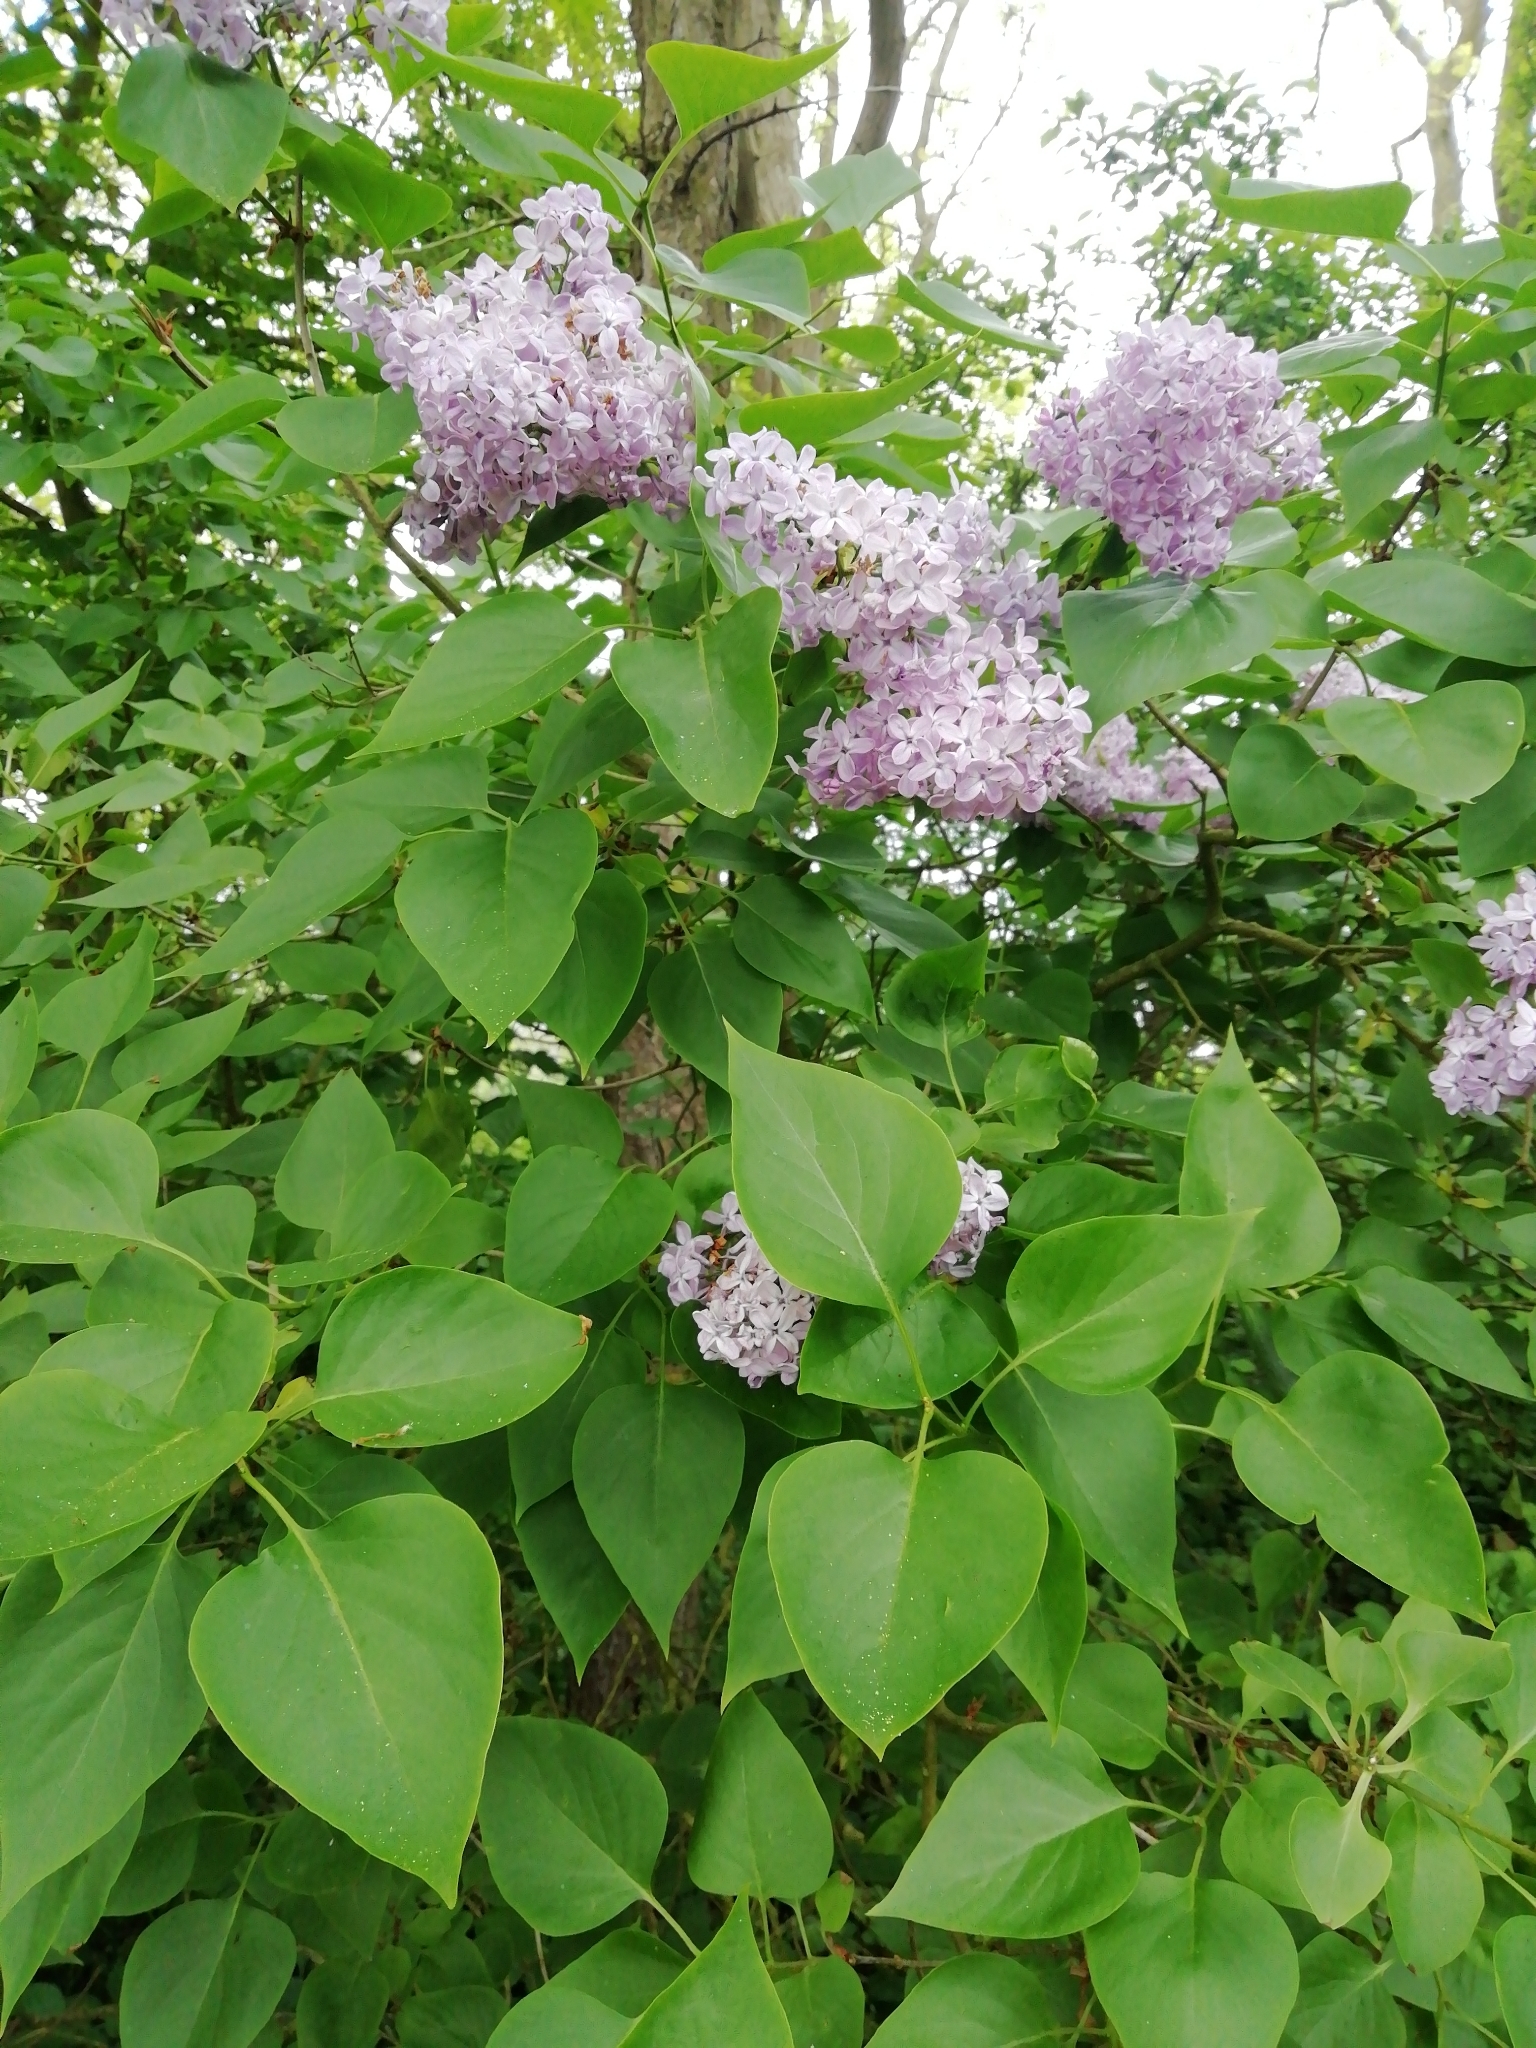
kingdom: Plantae
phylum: Tracheophyta
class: Magnoliopsida
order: Lamiales
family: Oleaceae
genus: Syringa
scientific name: Syringa vulgaris
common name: Common lilac
